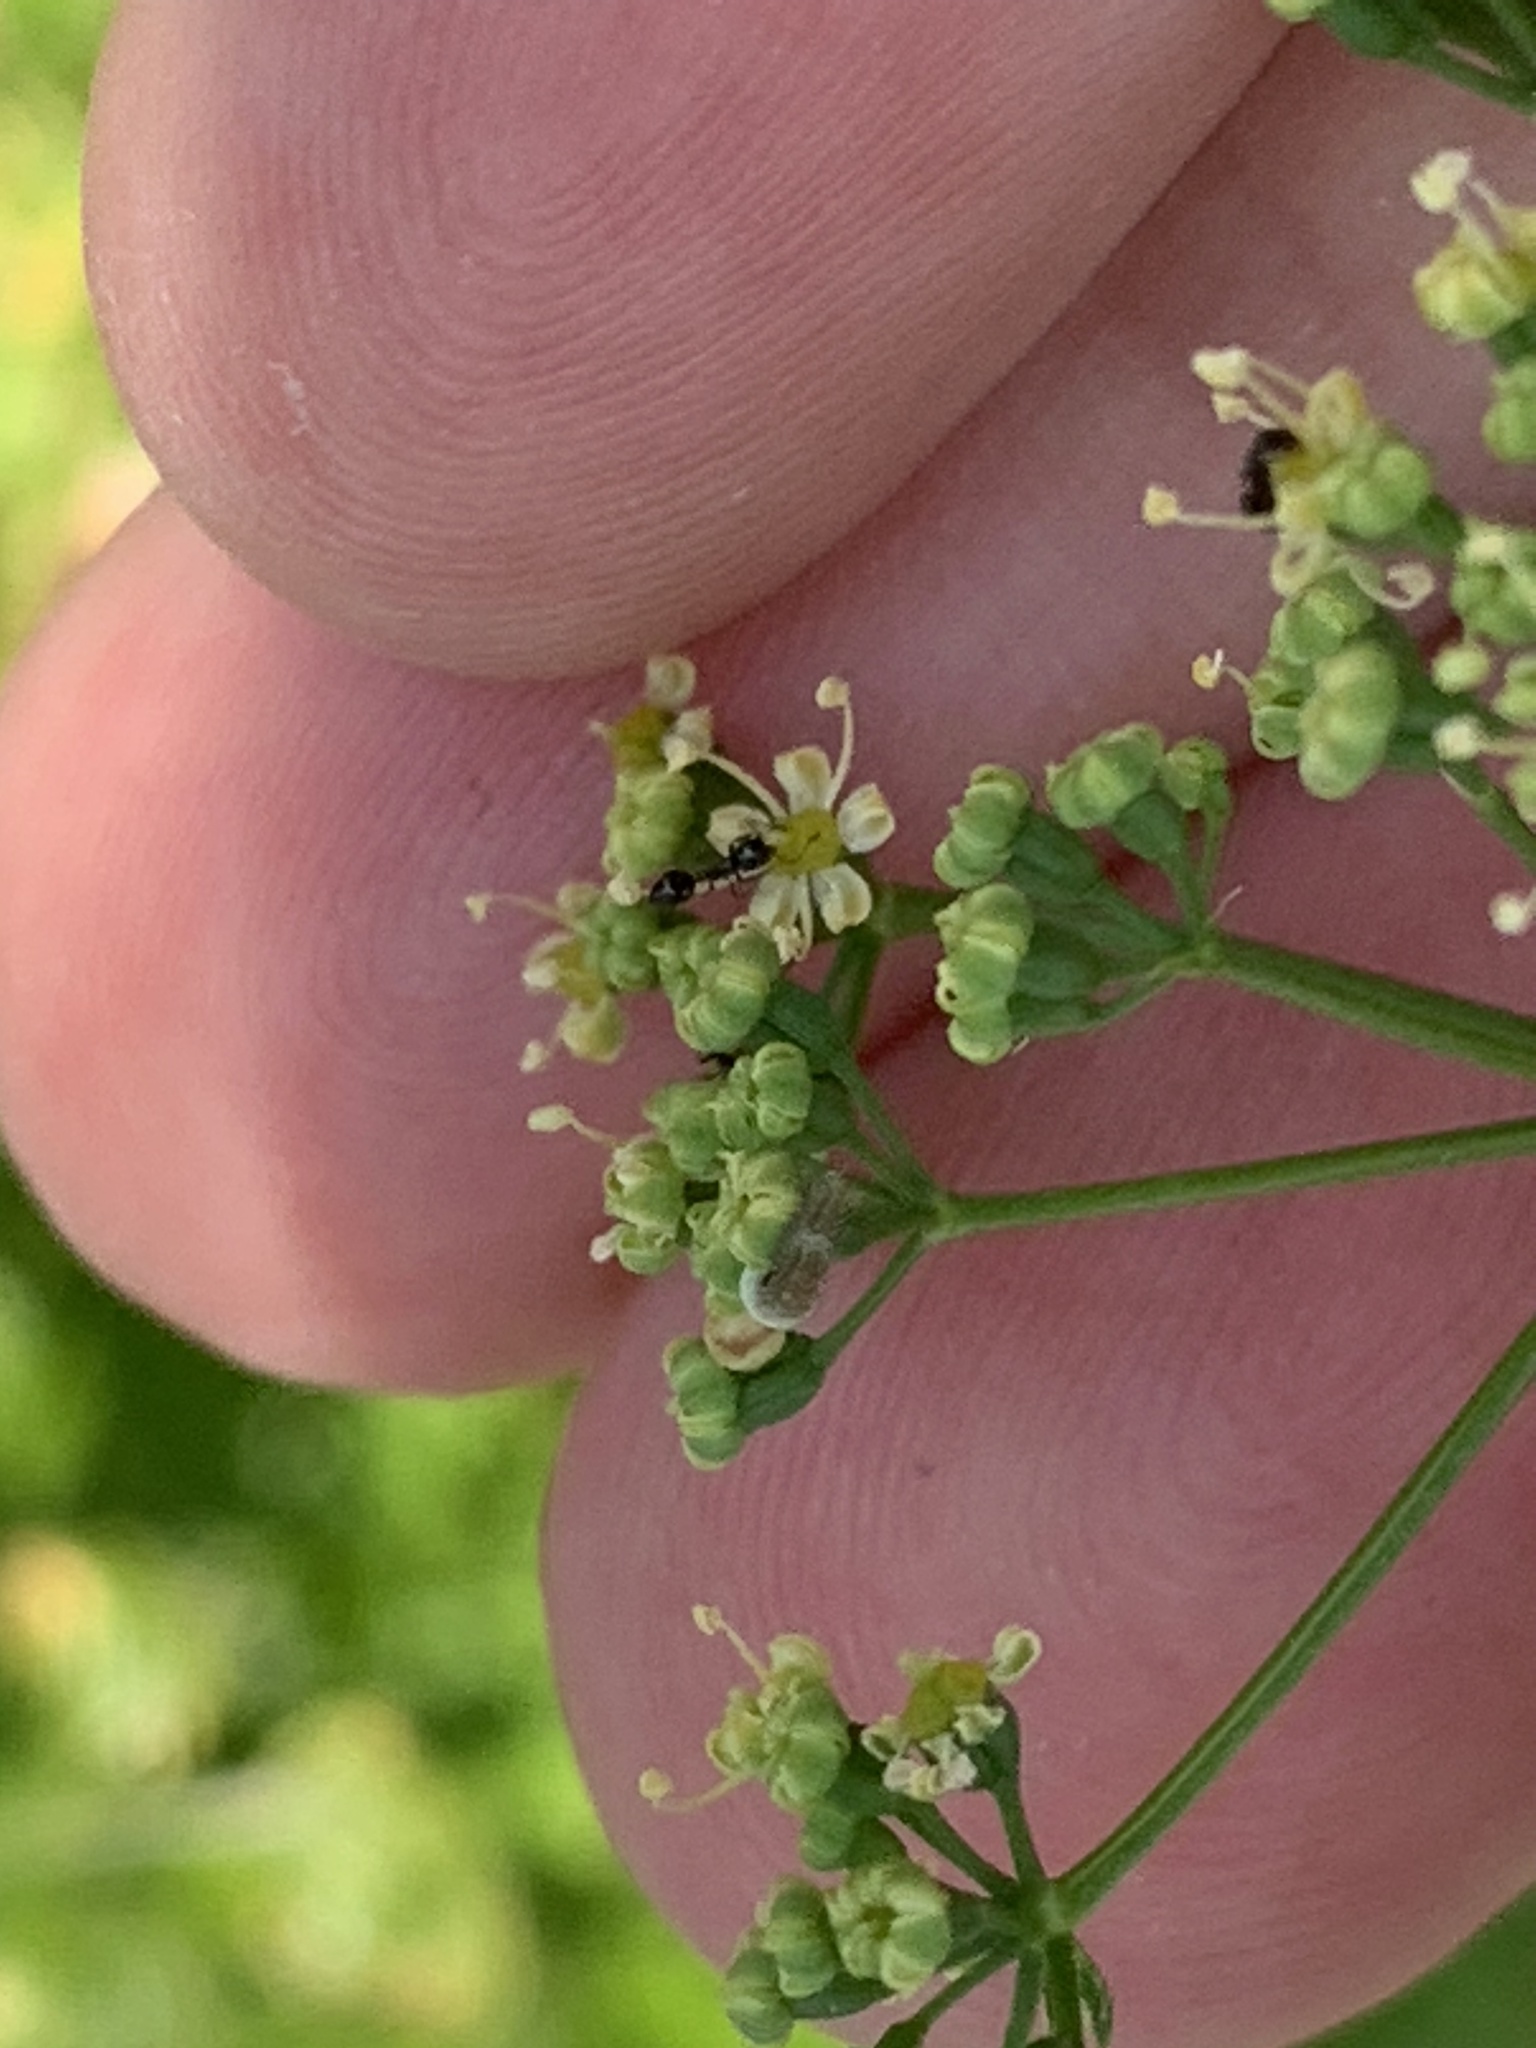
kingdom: Animalia
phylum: Arthropoda
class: Insecta
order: Lepidoptera
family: Papilionidae
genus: Papilio
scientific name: Papilio polyxenes
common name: Black swallowtail
